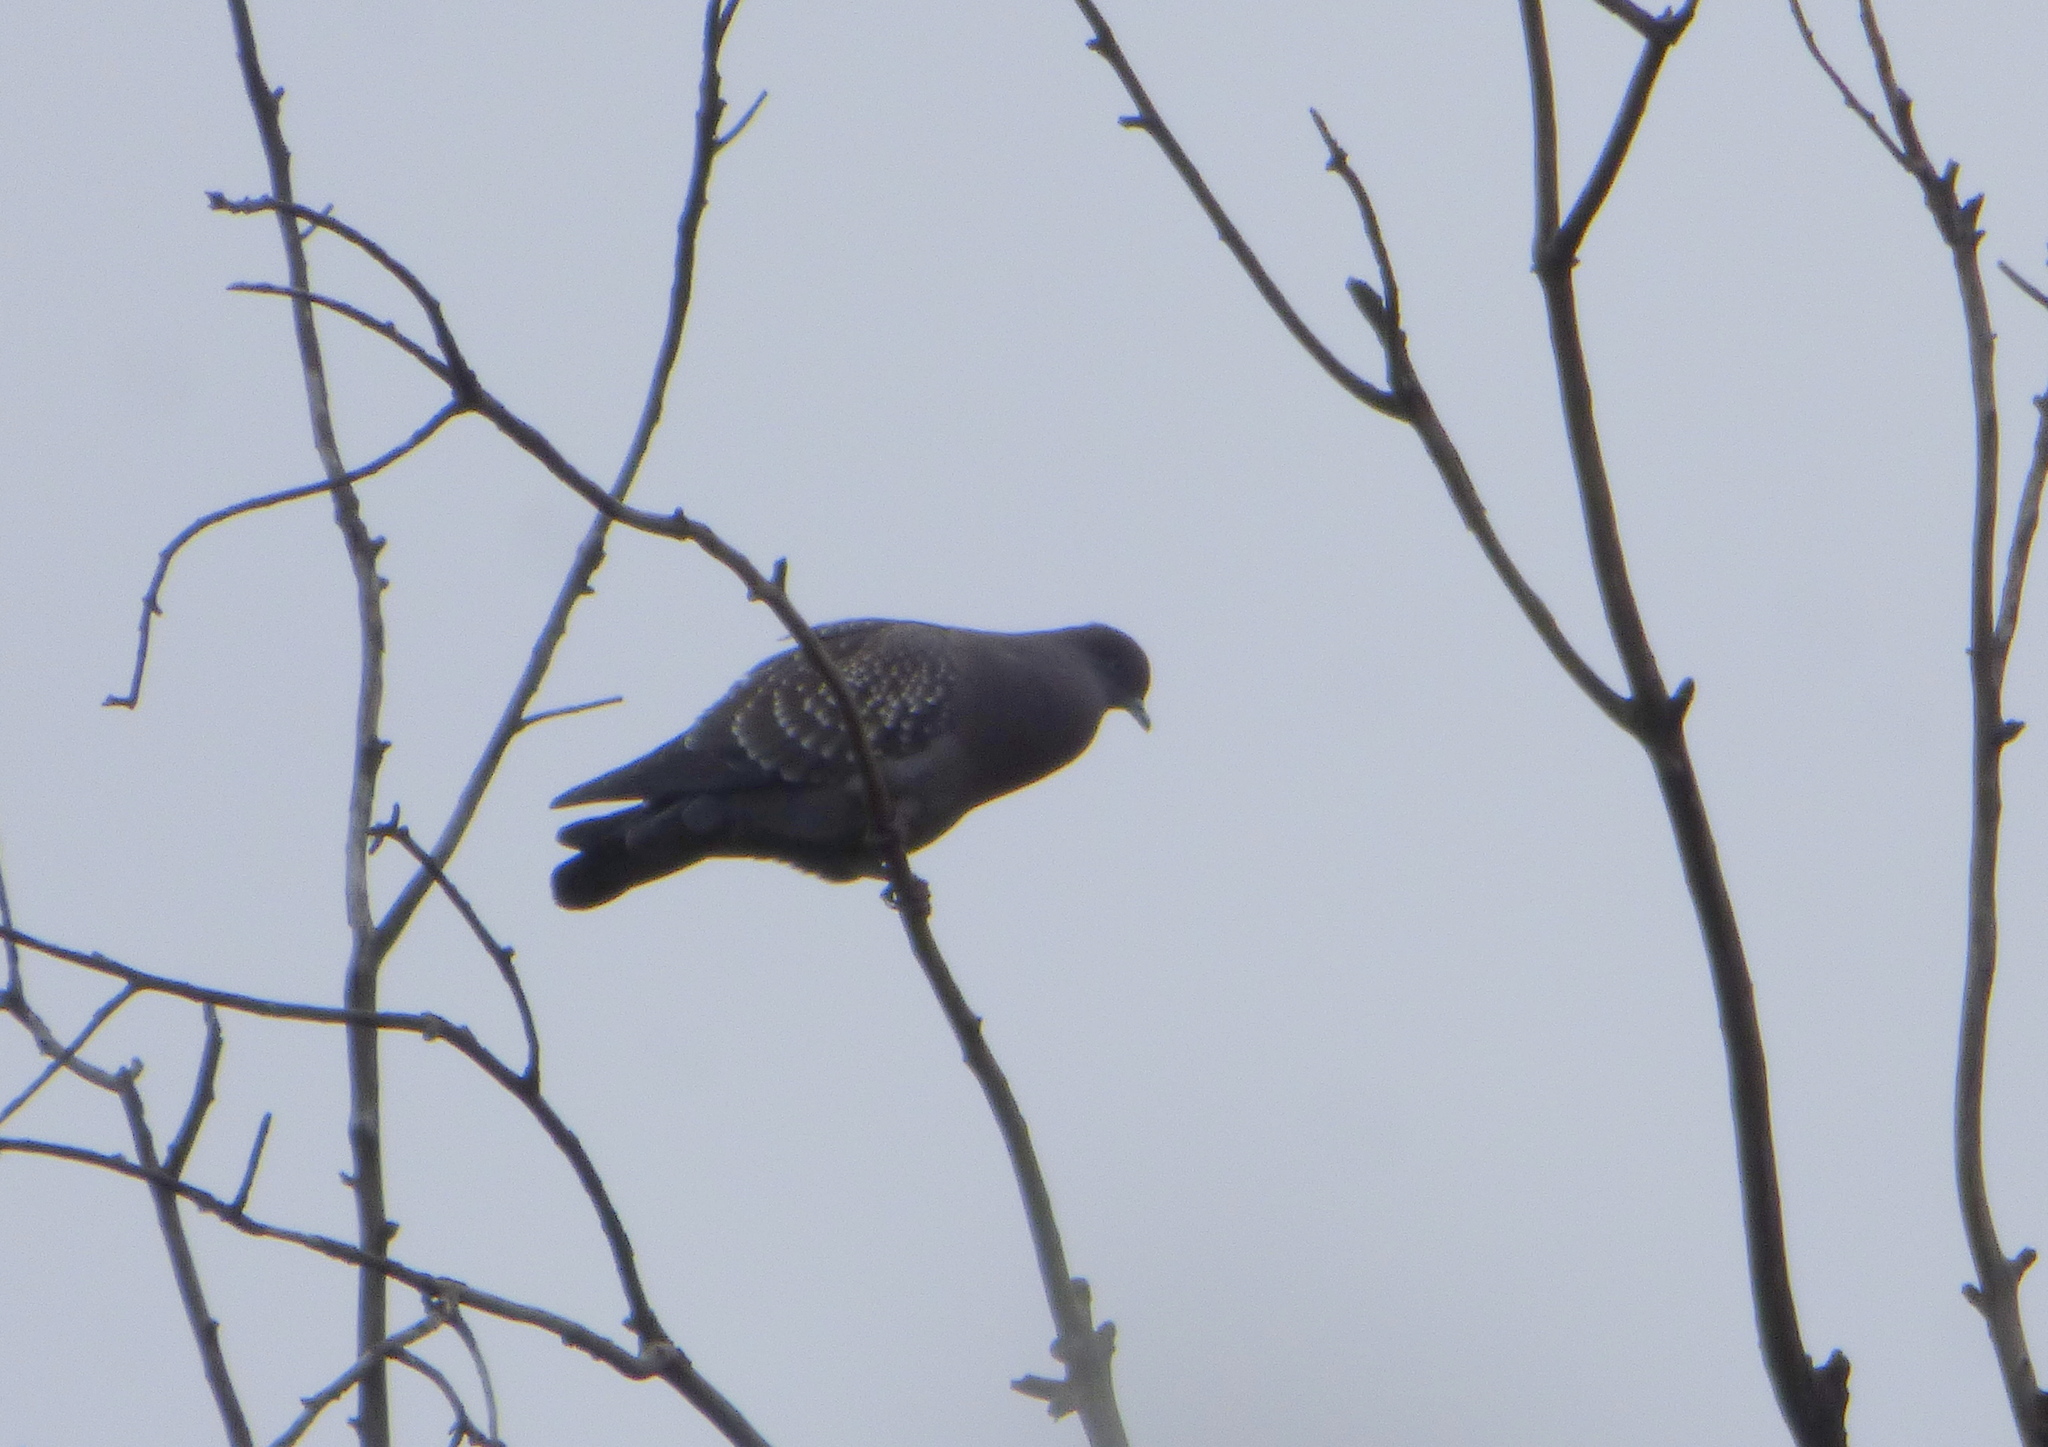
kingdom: Animalia
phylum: Chordata
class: Aves
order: Columbiformes
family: Columbidae
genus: Patagioenas
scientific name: Patagioenas maculosa
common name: Spot-winged pigeon
